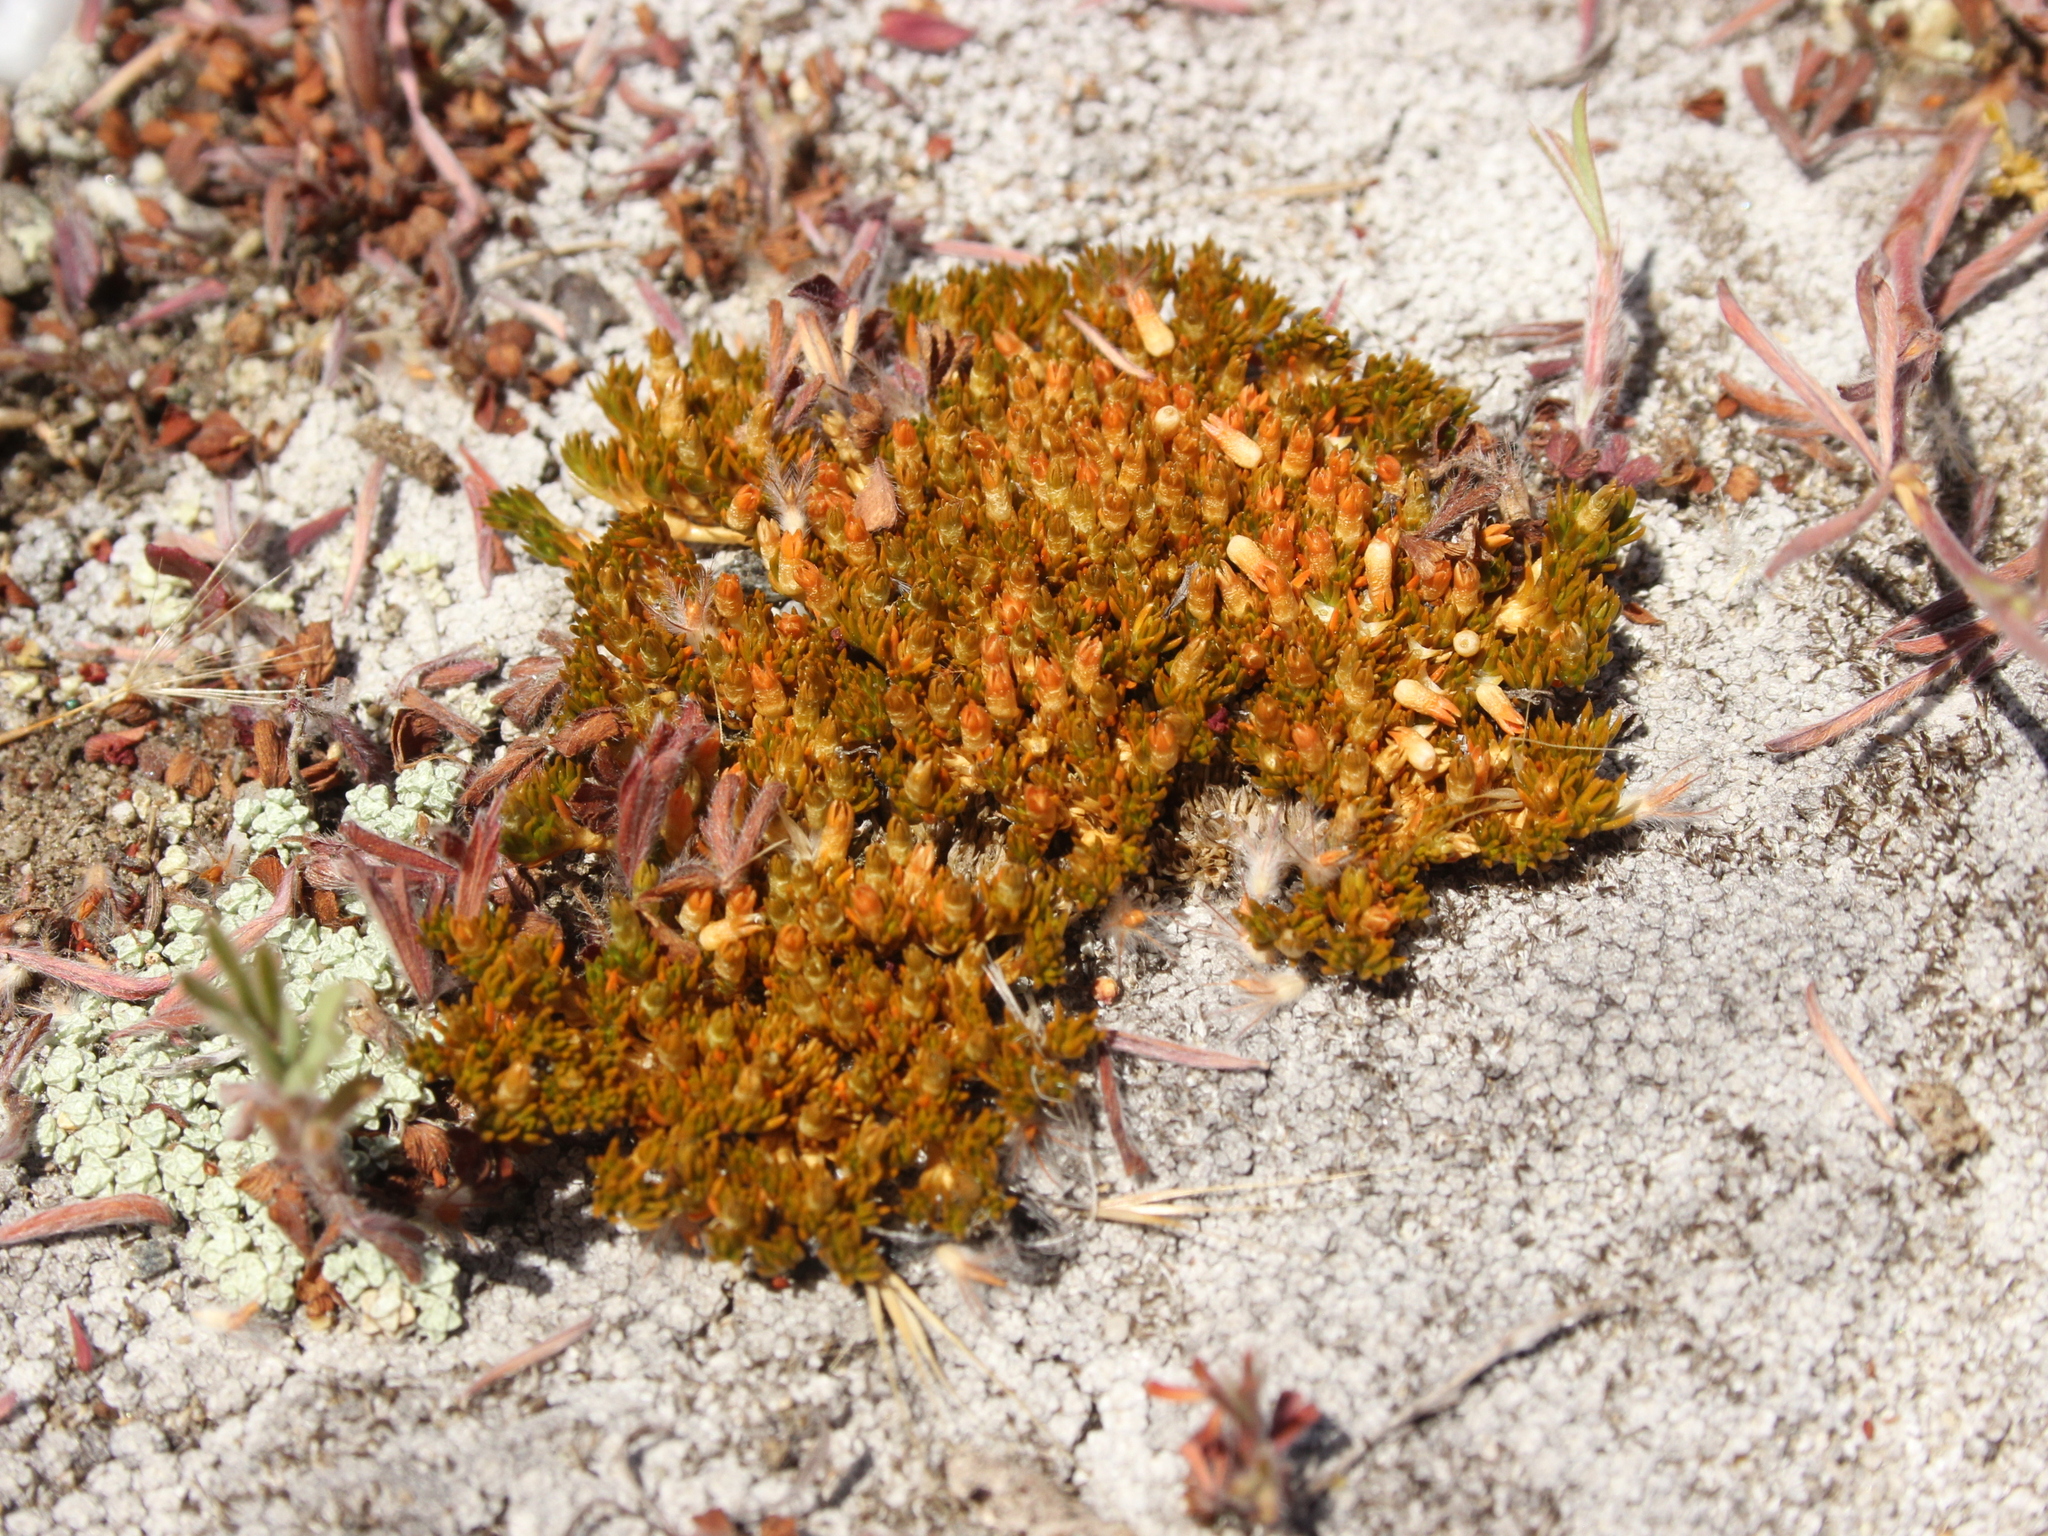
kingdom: Plantae
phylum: Tracheophyta
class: Magnoliopsida
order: Caryophyllales
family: Caryophyllaceae
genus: Scleranthus
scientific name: Scleranthus uniflorus
